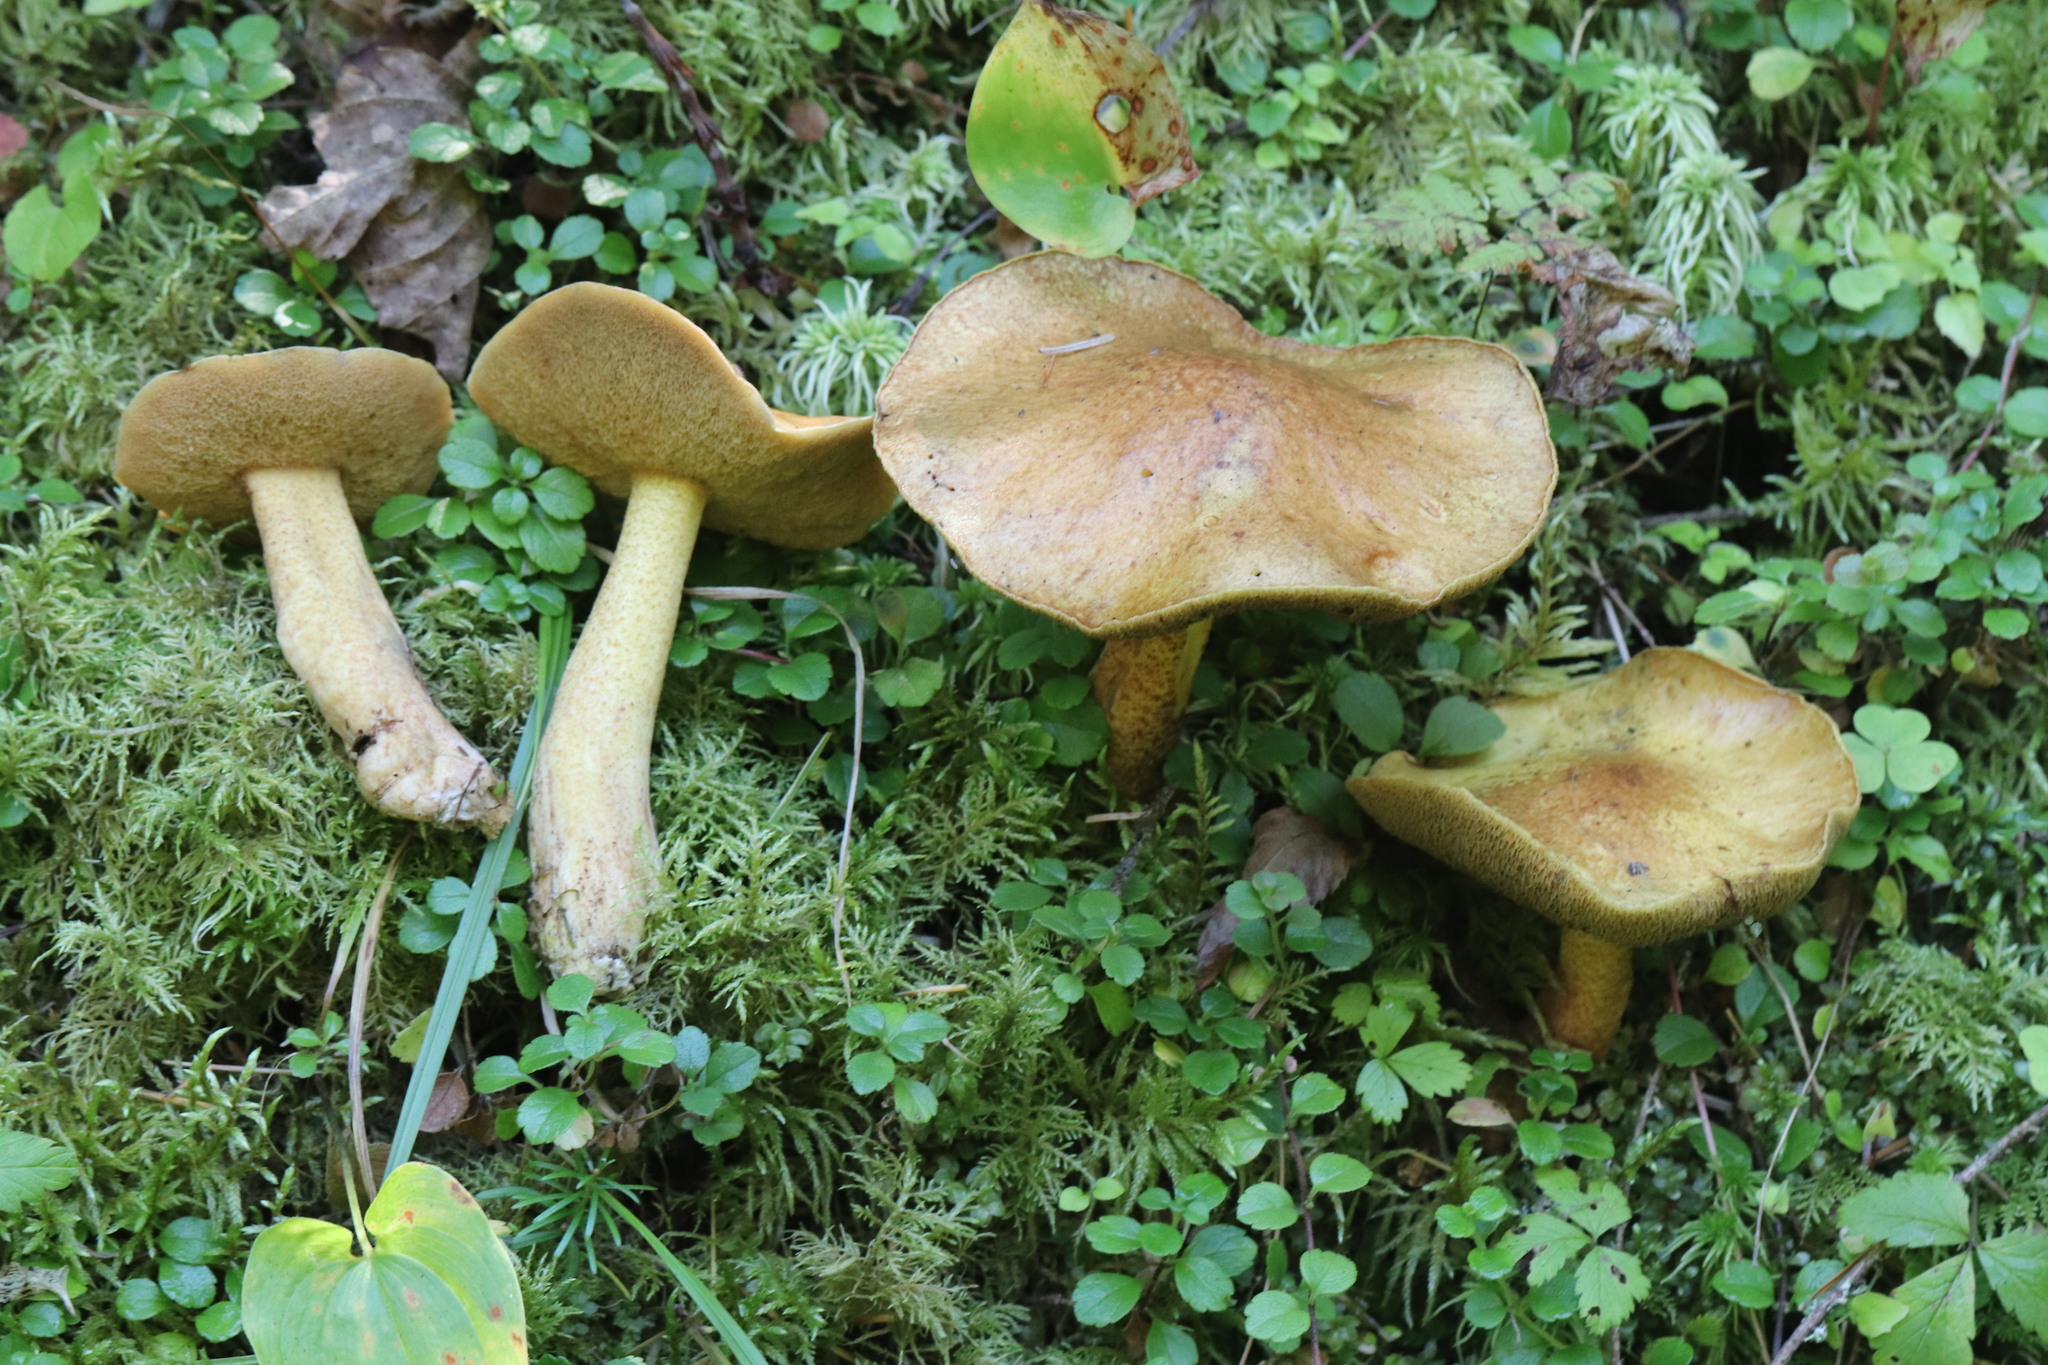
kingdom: Fungi
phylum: Basidiomycota
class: Agaricomycetes
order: Boletales
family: Suillaceae
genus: Suillus
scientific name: Suillus plorans
